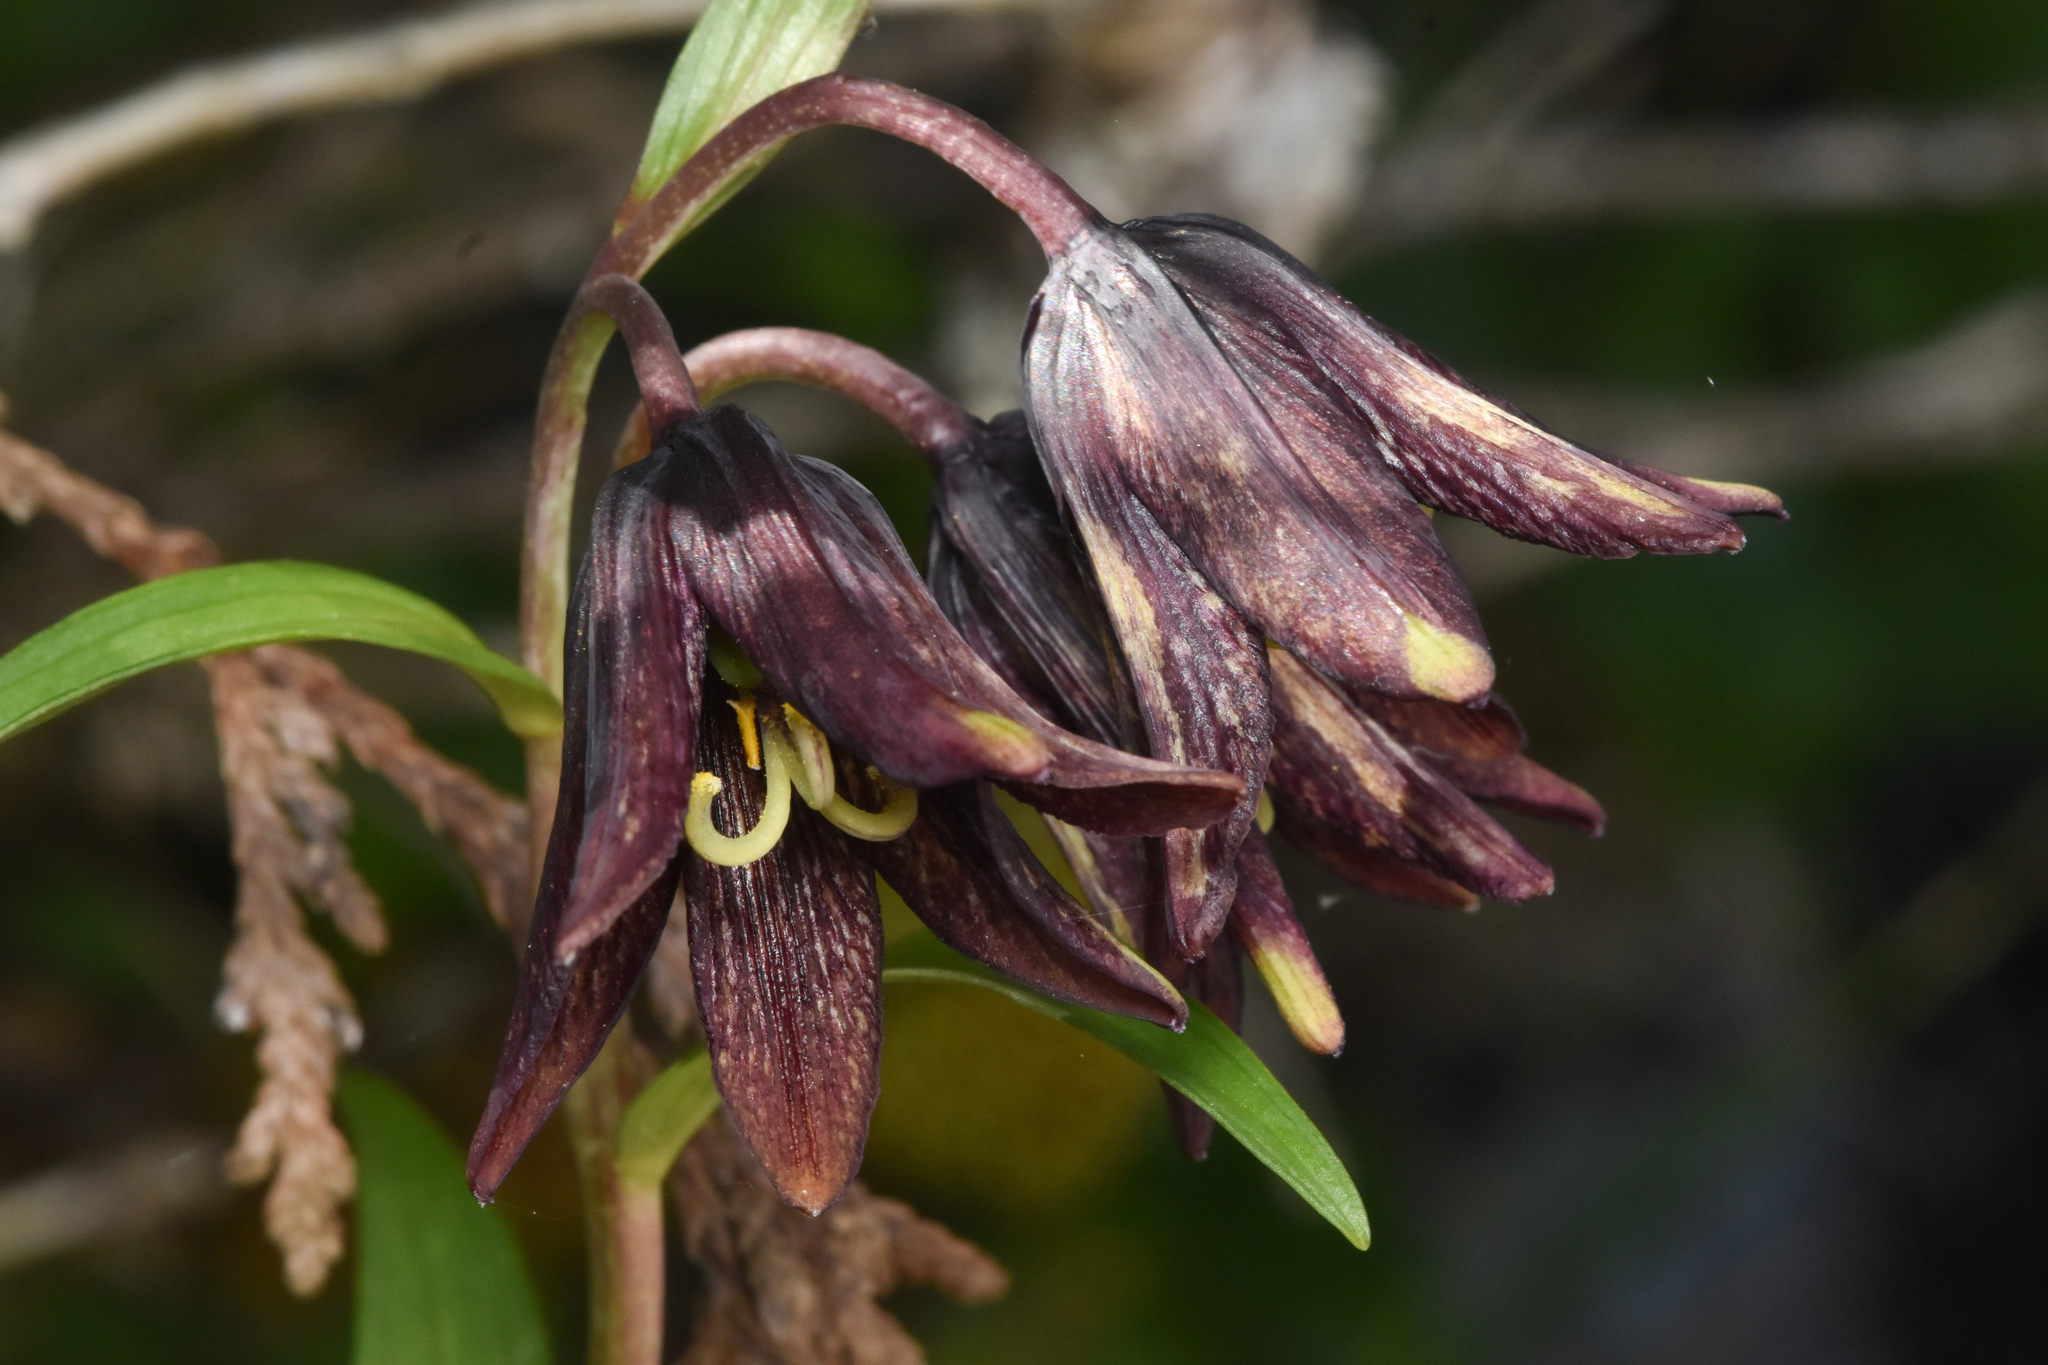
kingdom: Plantae
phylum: Tracheophyta
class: Liliopsida
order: Liliales
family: Liliaceae
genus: Fritillaria
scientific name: Fritillaria camschatcensis
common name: Kamchatka fritillary
